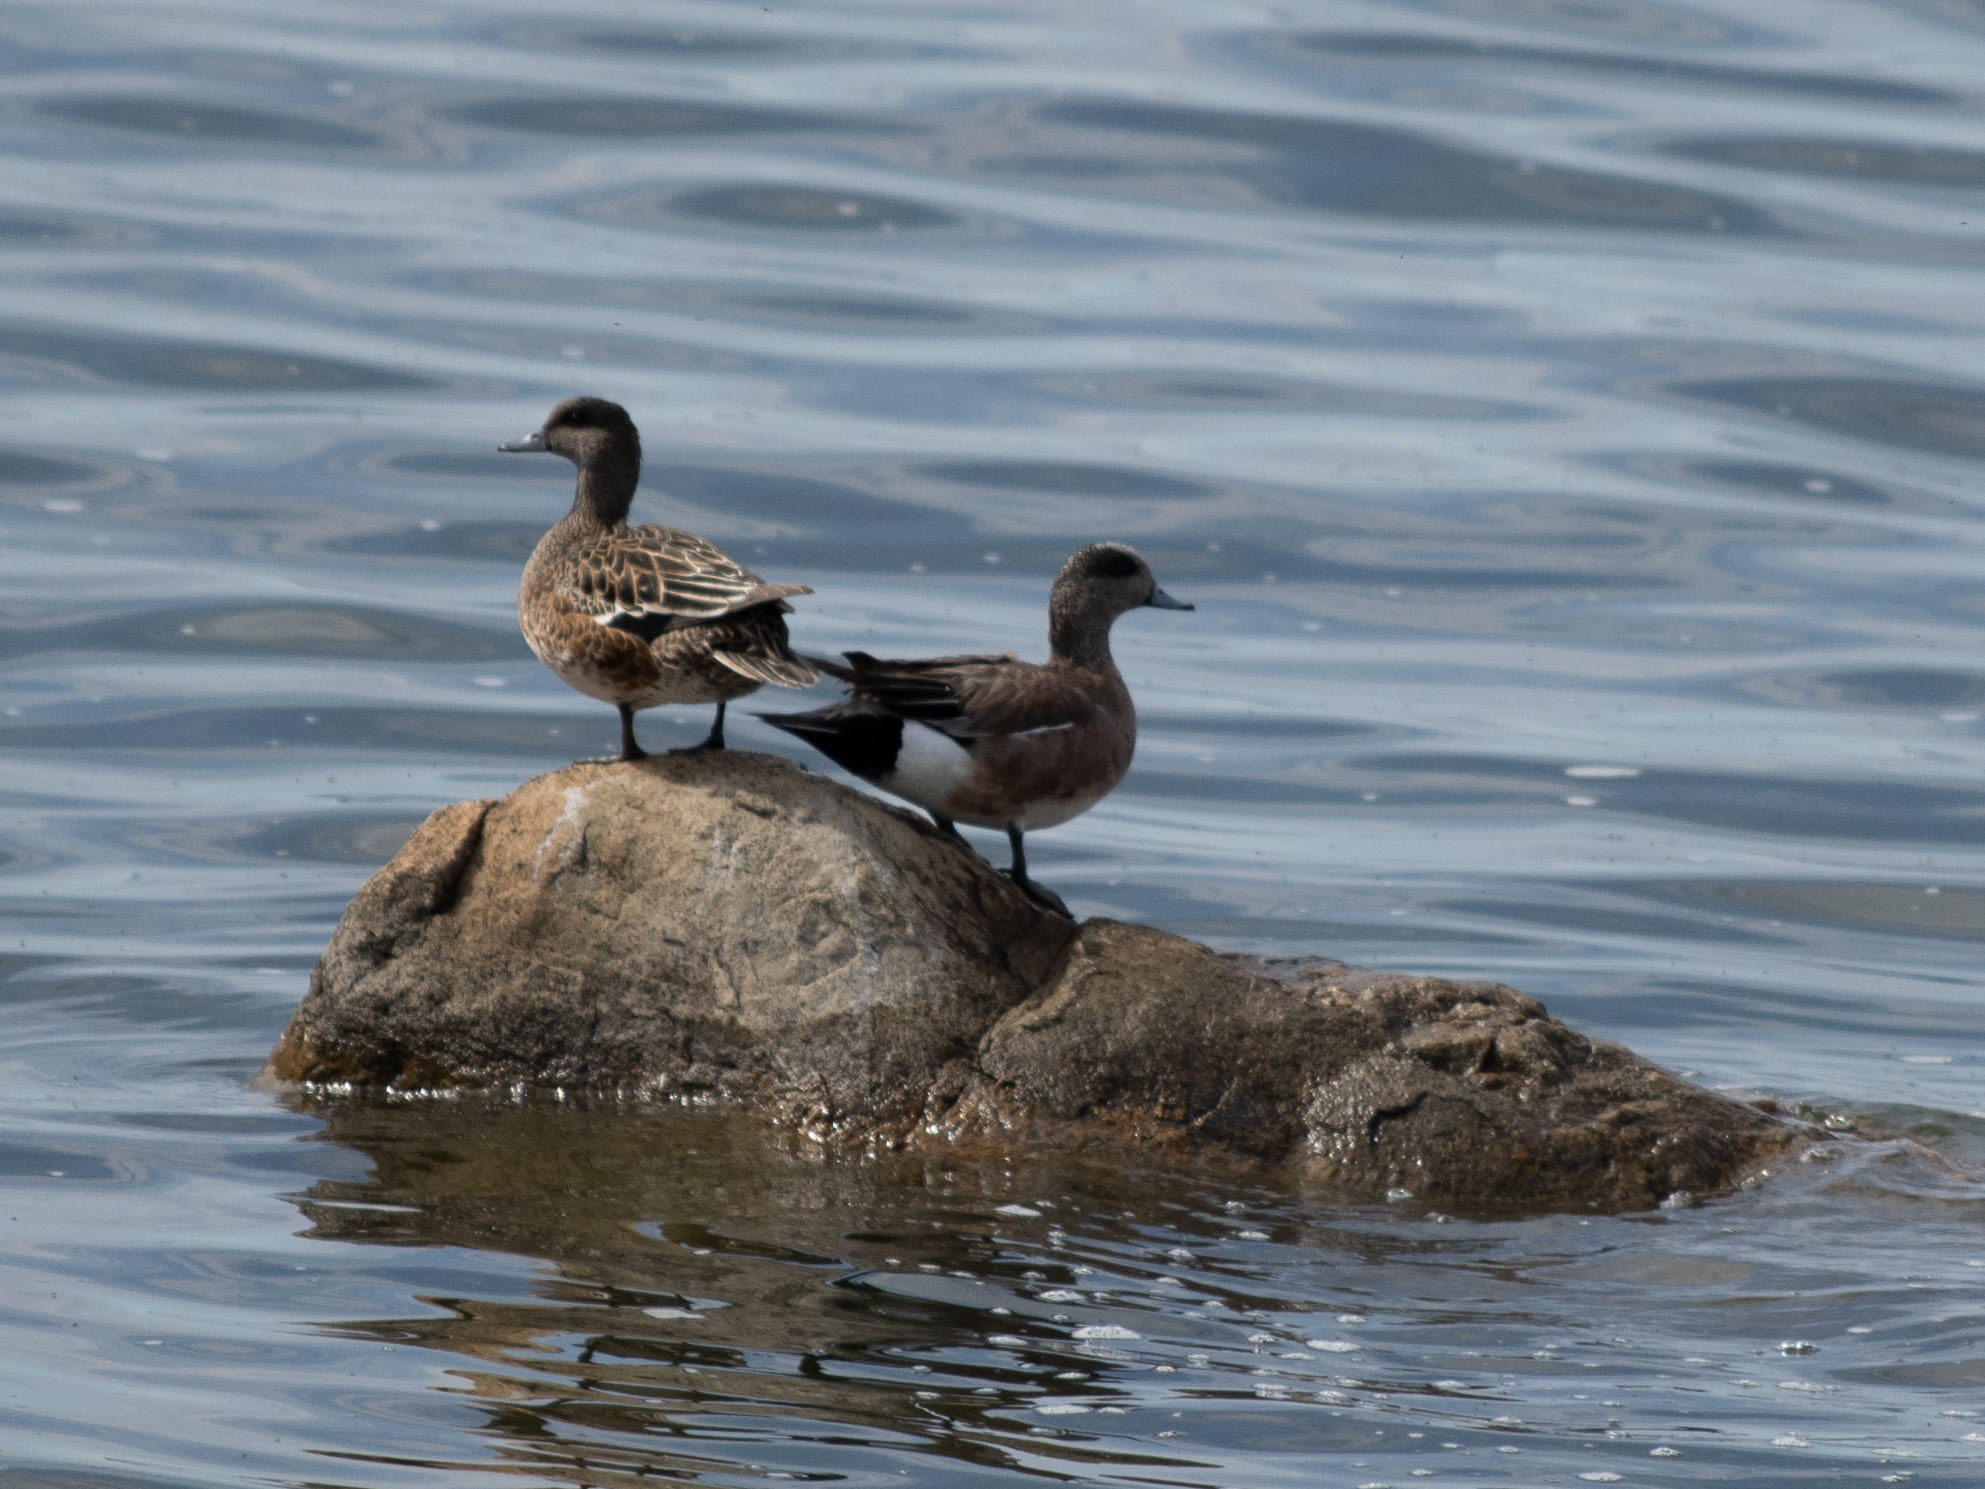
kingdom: Animalia
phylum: Chordata
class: Aves
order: Anseriformes
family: Anatidae
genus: Mareca
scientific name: Mareca americana
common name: American wigeon
